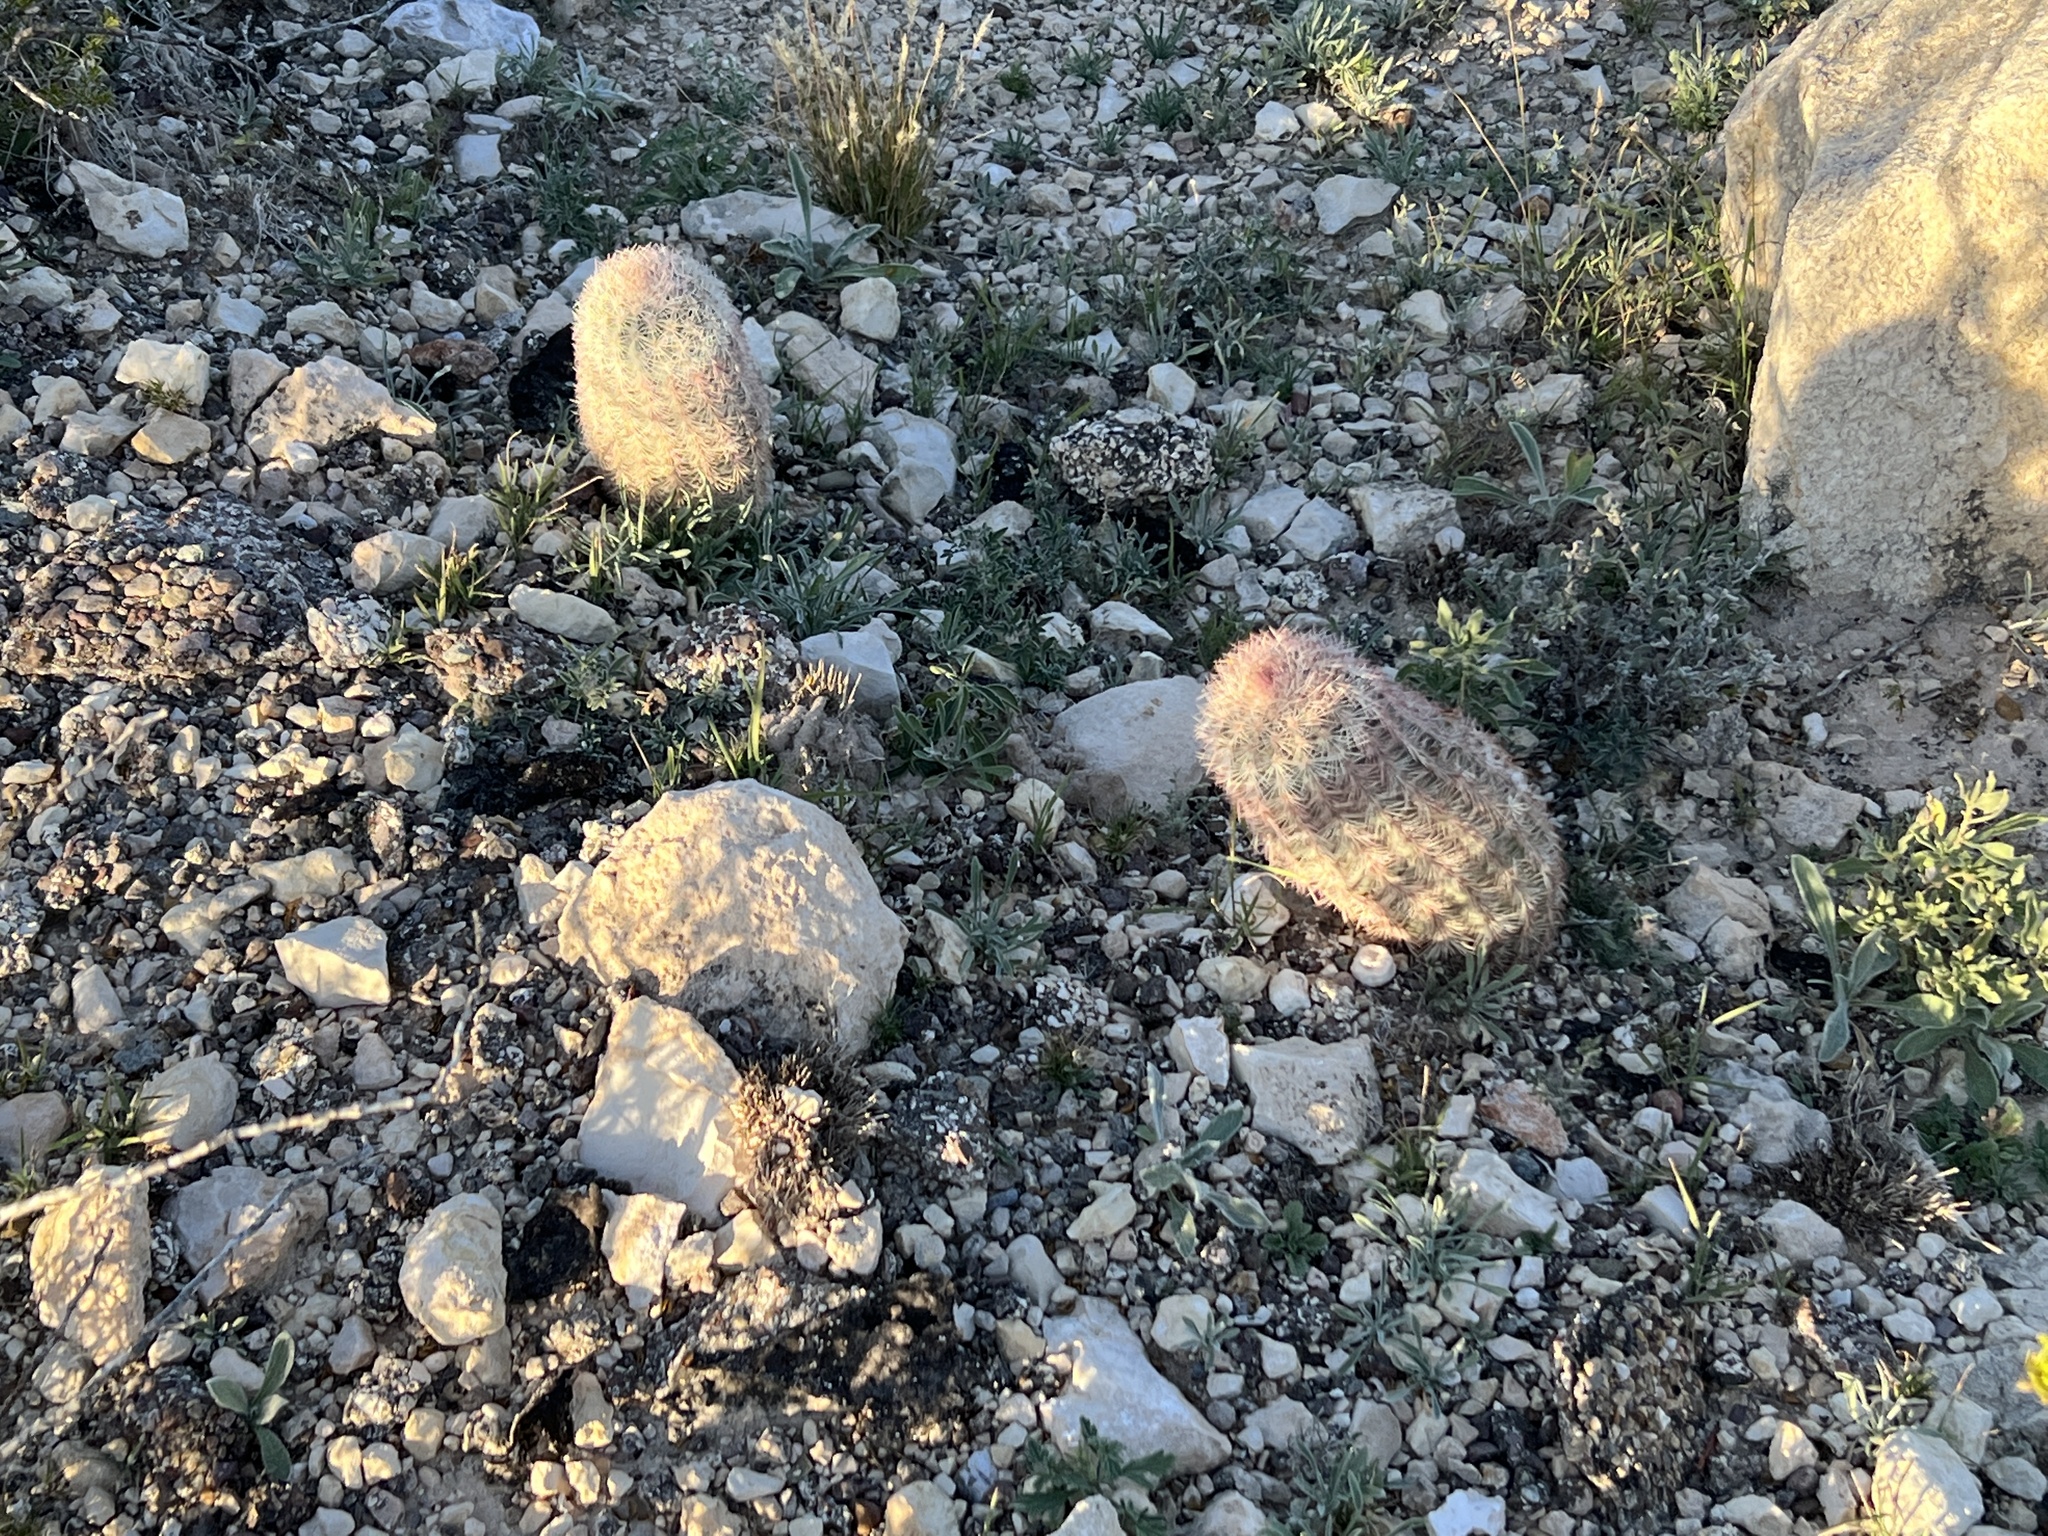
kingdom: Plantae
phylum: Tracheophyta
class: Magnoliopsida
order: Caryophyllales
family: Cactaceae
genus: Echinocereus
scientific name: Echinocereus dasyacanthus
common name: Spiny hedgehog cactus
